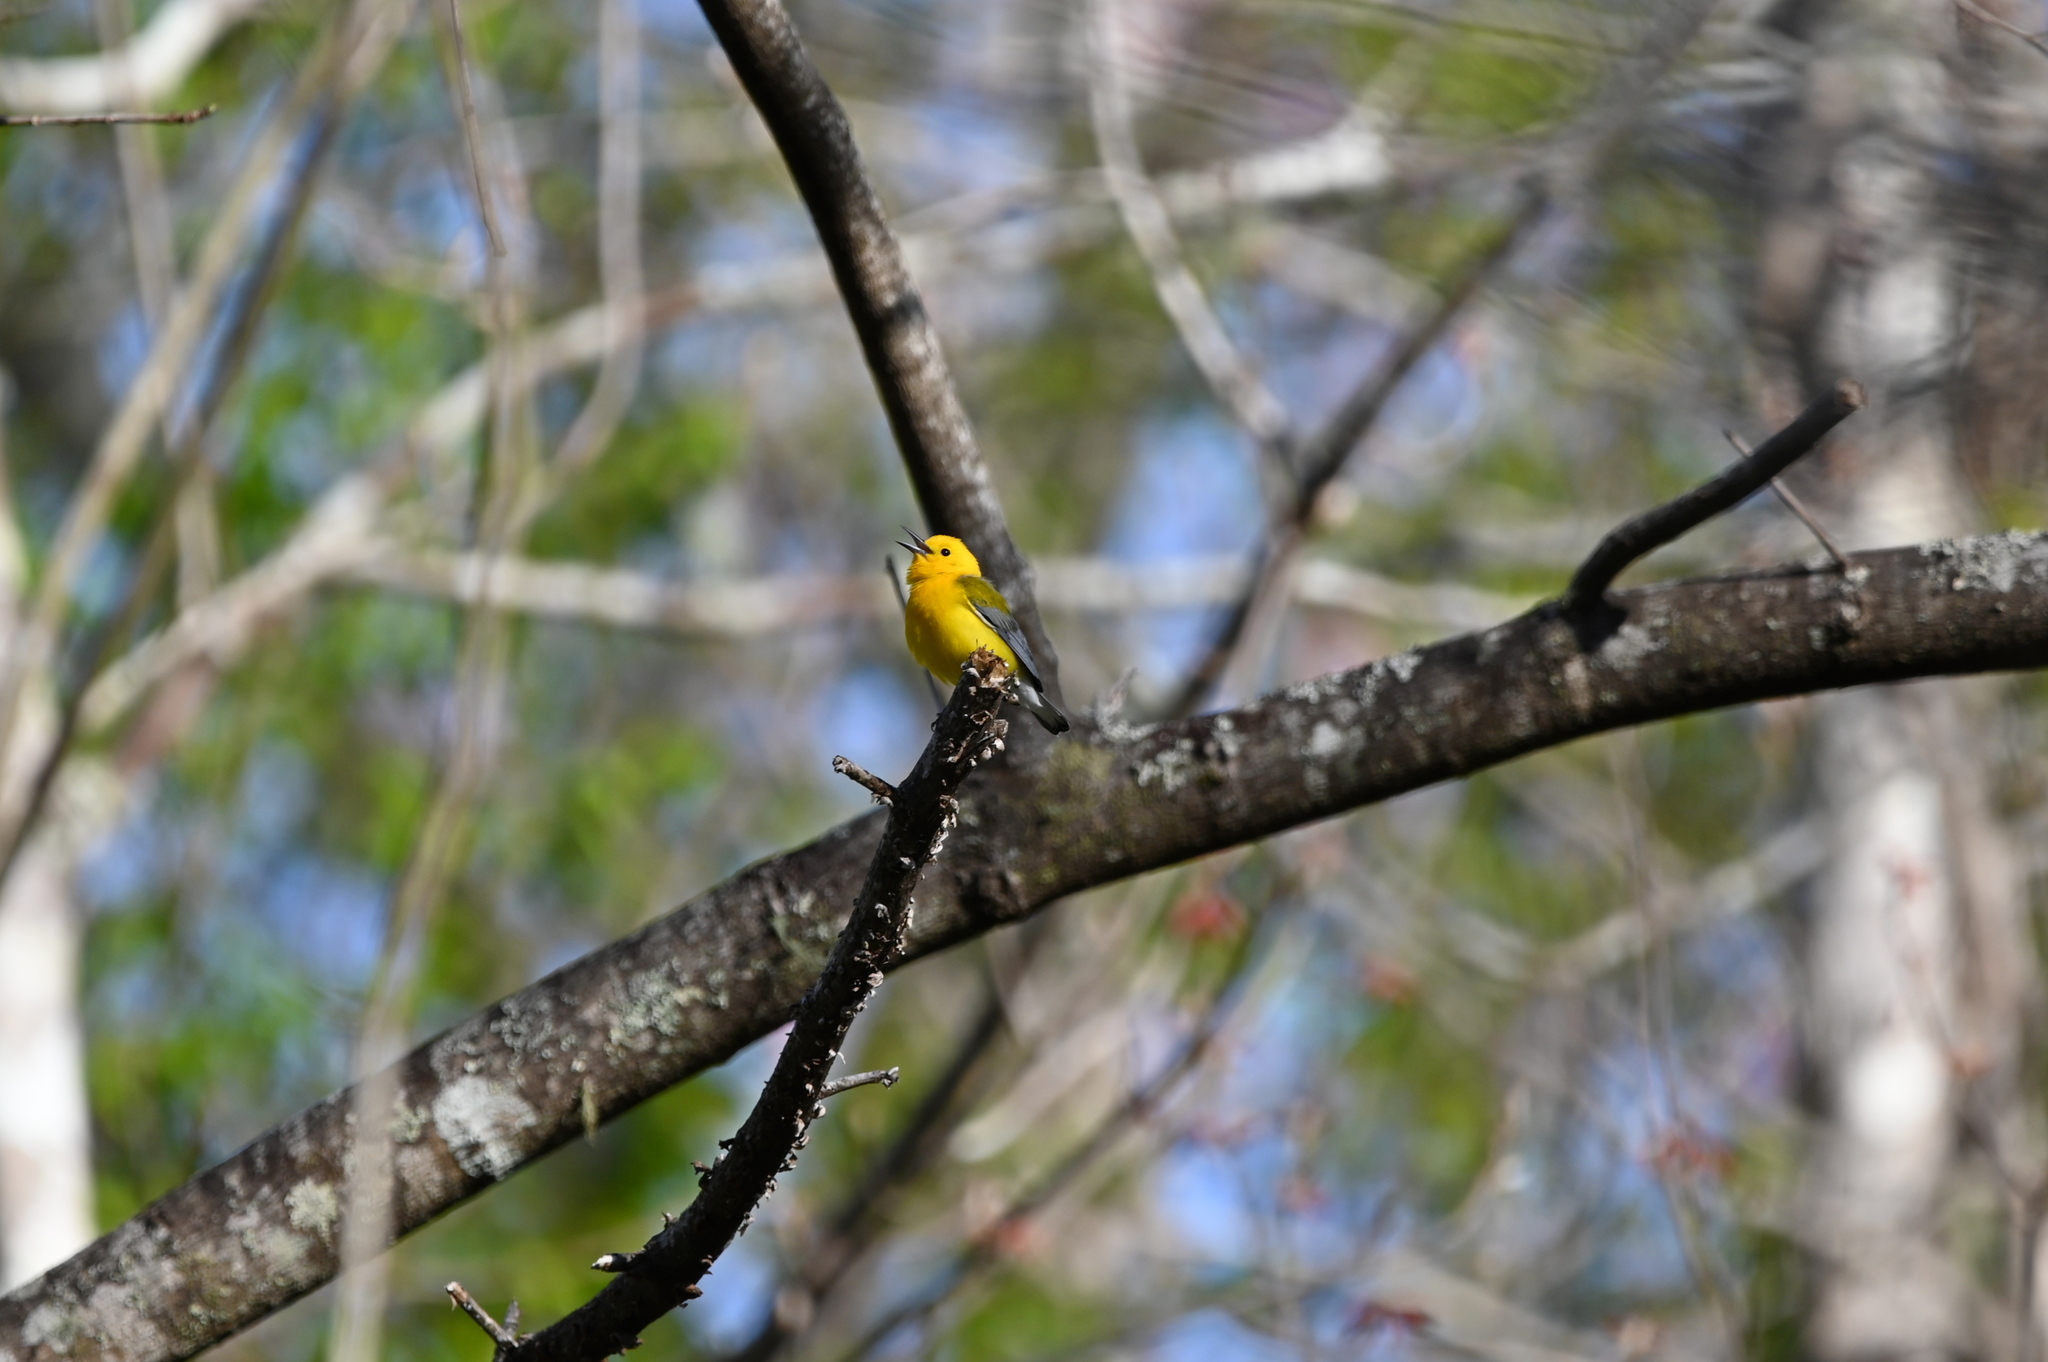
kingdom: Animalia
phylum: Chordata
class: Aves
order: Passeriformes
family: Parulidae
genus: Protonotaria
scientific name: Protonotaria citrea
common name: Prothonotary warbler
